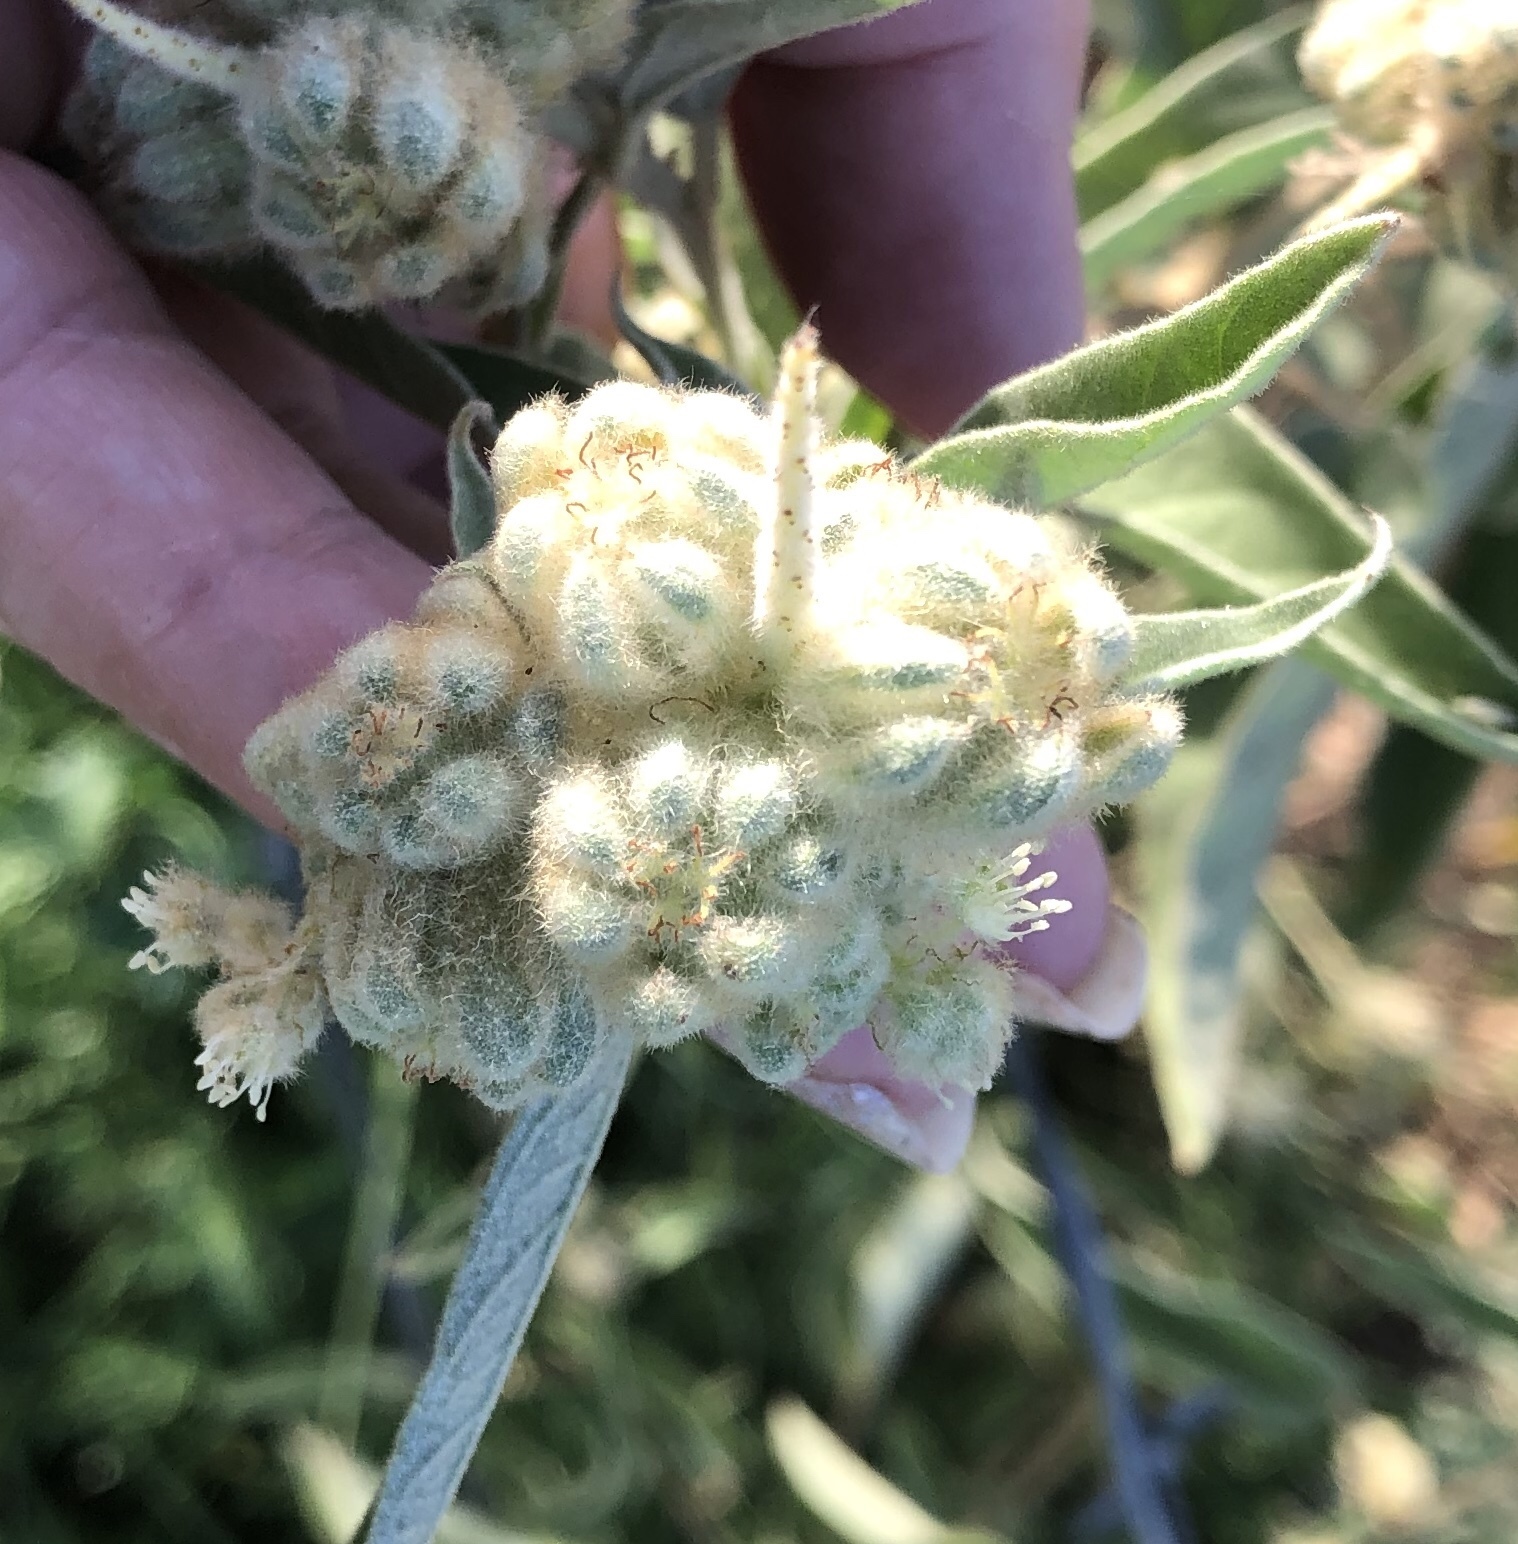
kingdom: Plantae
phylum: Tracheophyta
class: Magnoliopsida
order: Malpighiales
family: Euphorbiaceae
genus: Croton
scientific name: Croton lindheimeri
